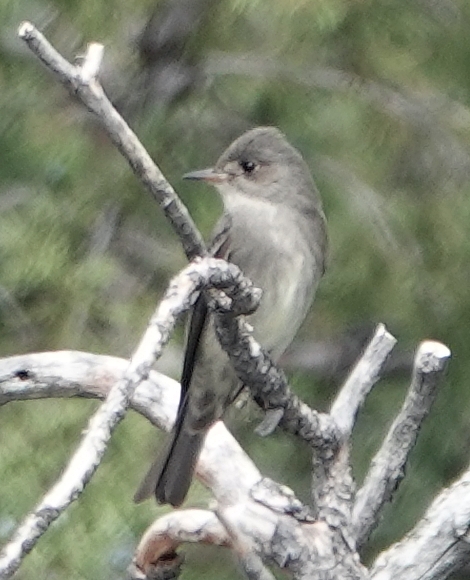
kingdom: Animalia
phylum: Chordata
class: Aves
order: Passeriformes
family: Tyrannidae
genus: Contopus
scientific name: Contopus sordidulus
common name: Western wood-pewee
